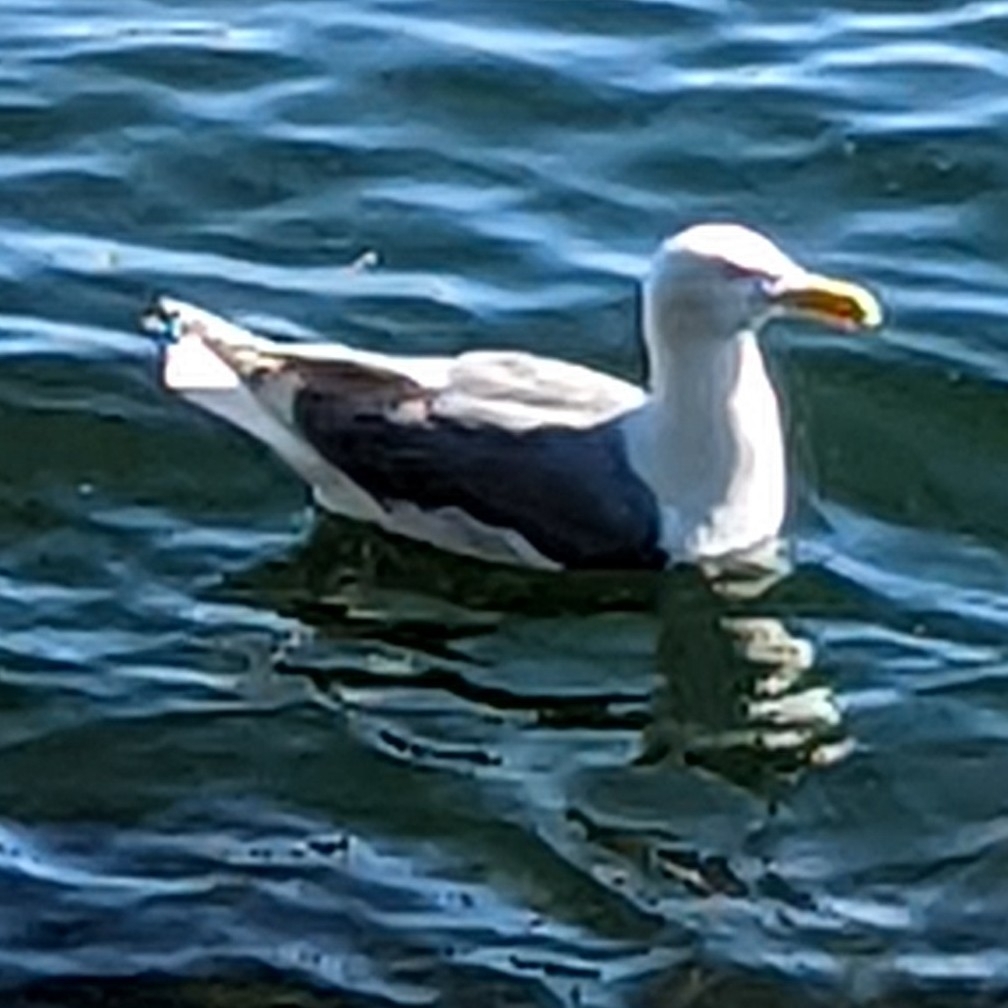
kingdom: Animalia
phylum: Chordata
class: Aves
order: Charadriiformes
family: Laridae
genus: Larus
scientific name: Larus glaucescens
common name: Glaucous-winged gull
